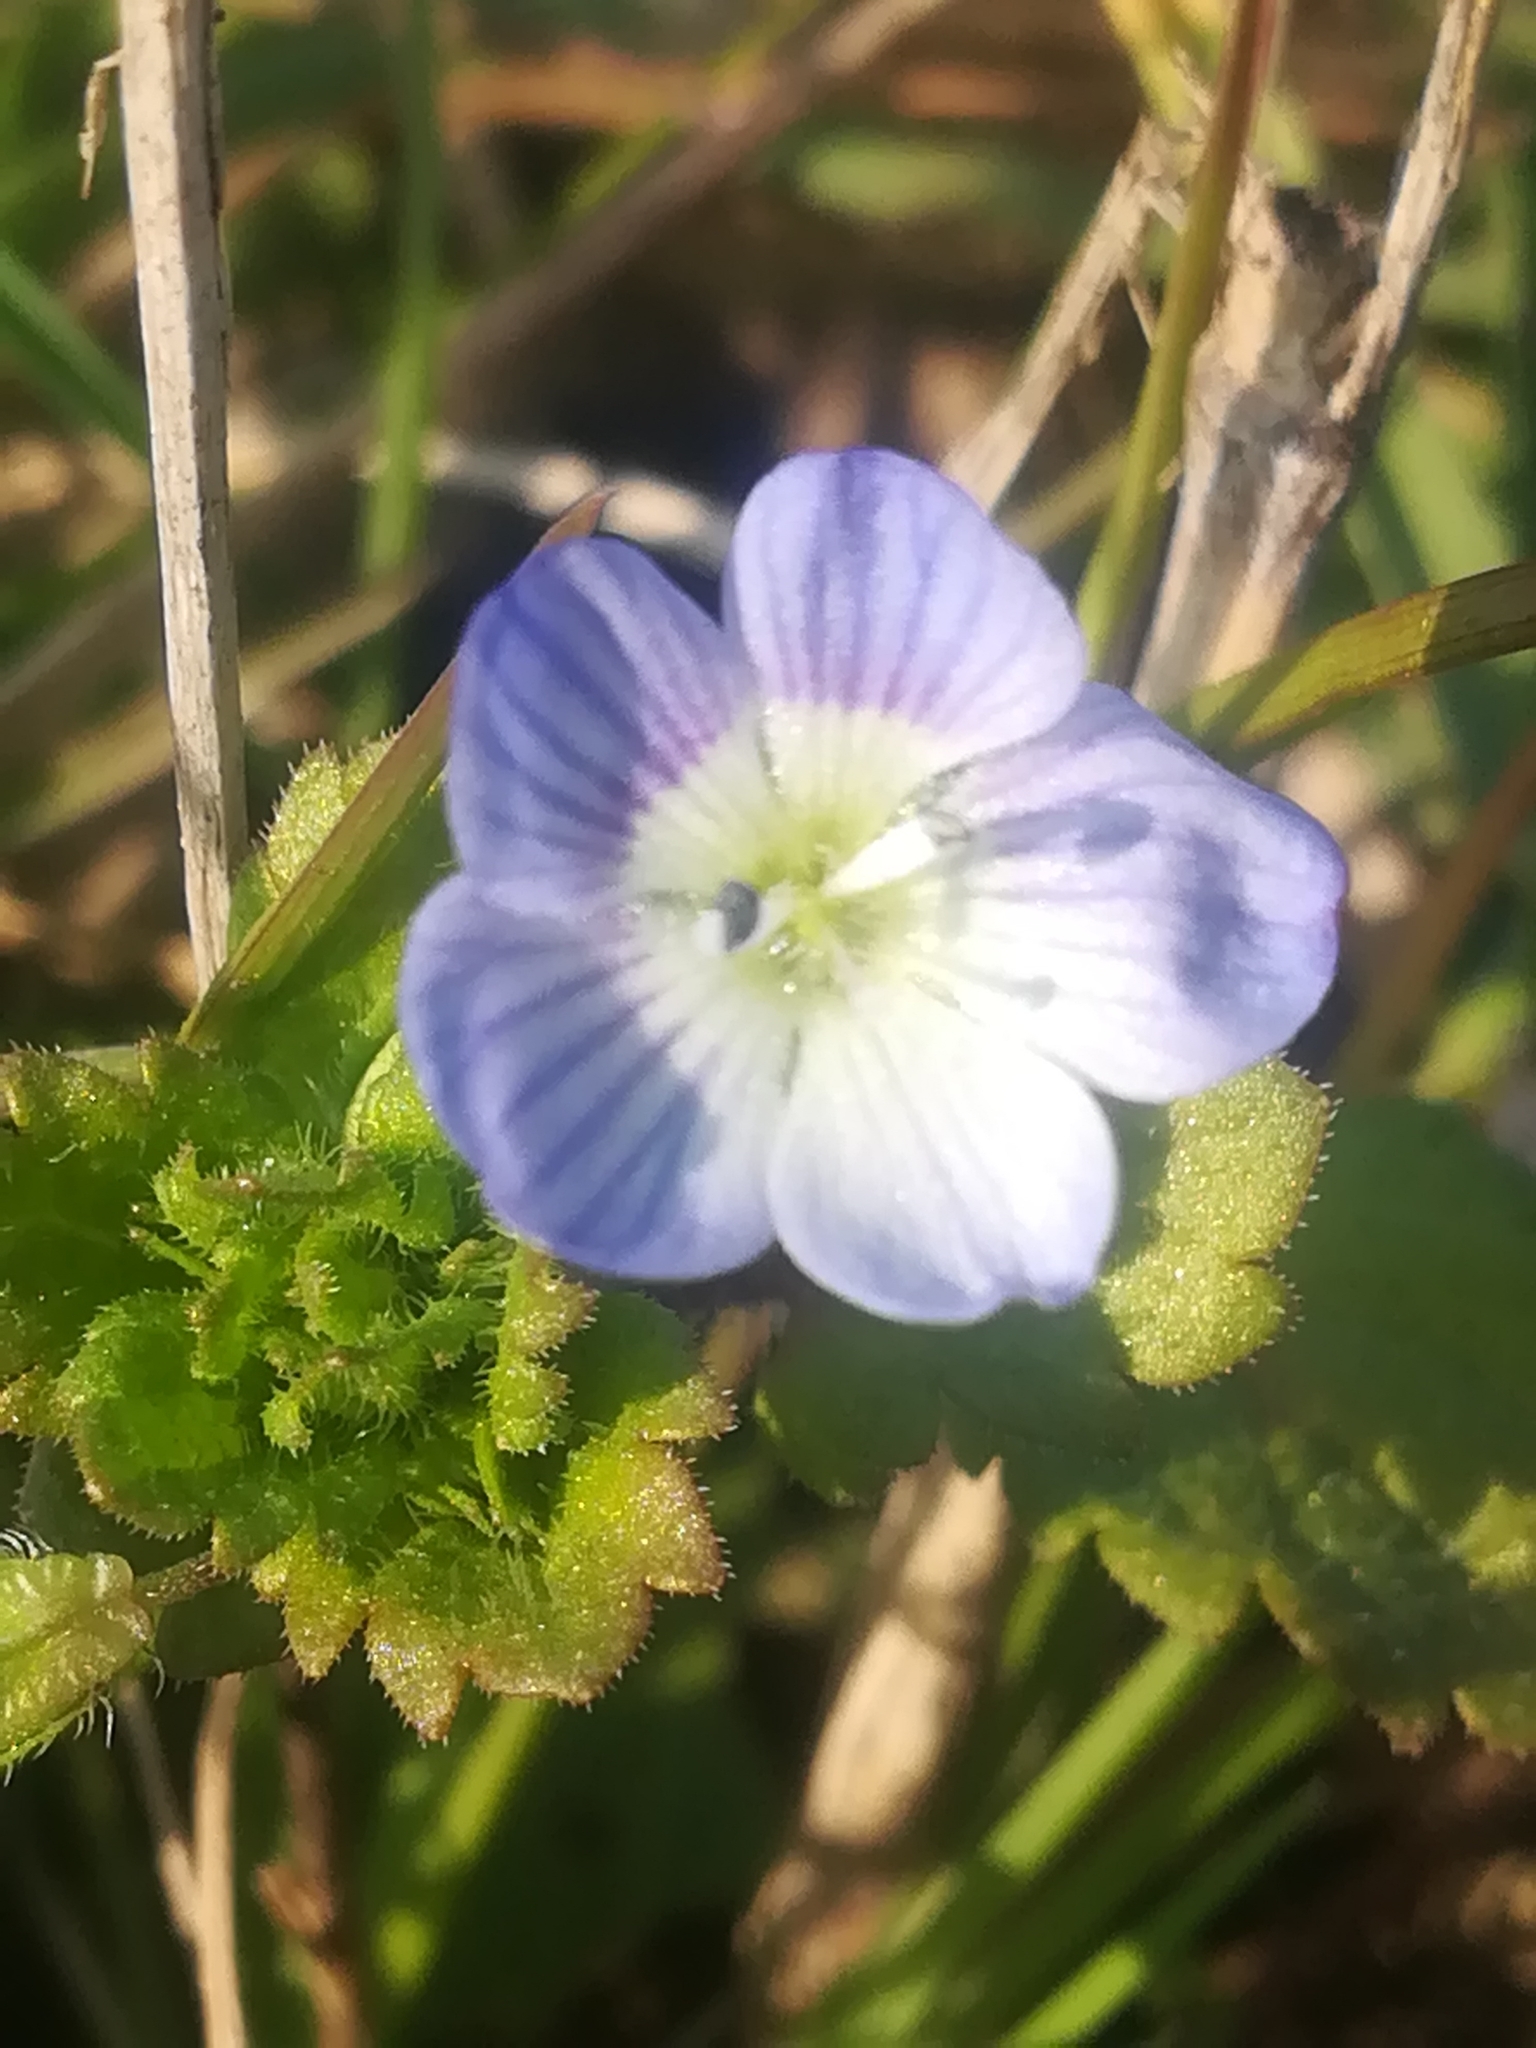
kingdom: Plantae
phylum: Tracheophyta
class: Magnoliopsida
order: Lamiales
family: Plantaginaceae
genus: Veronica
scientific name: Veronica persica
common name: Common field-speedwell
